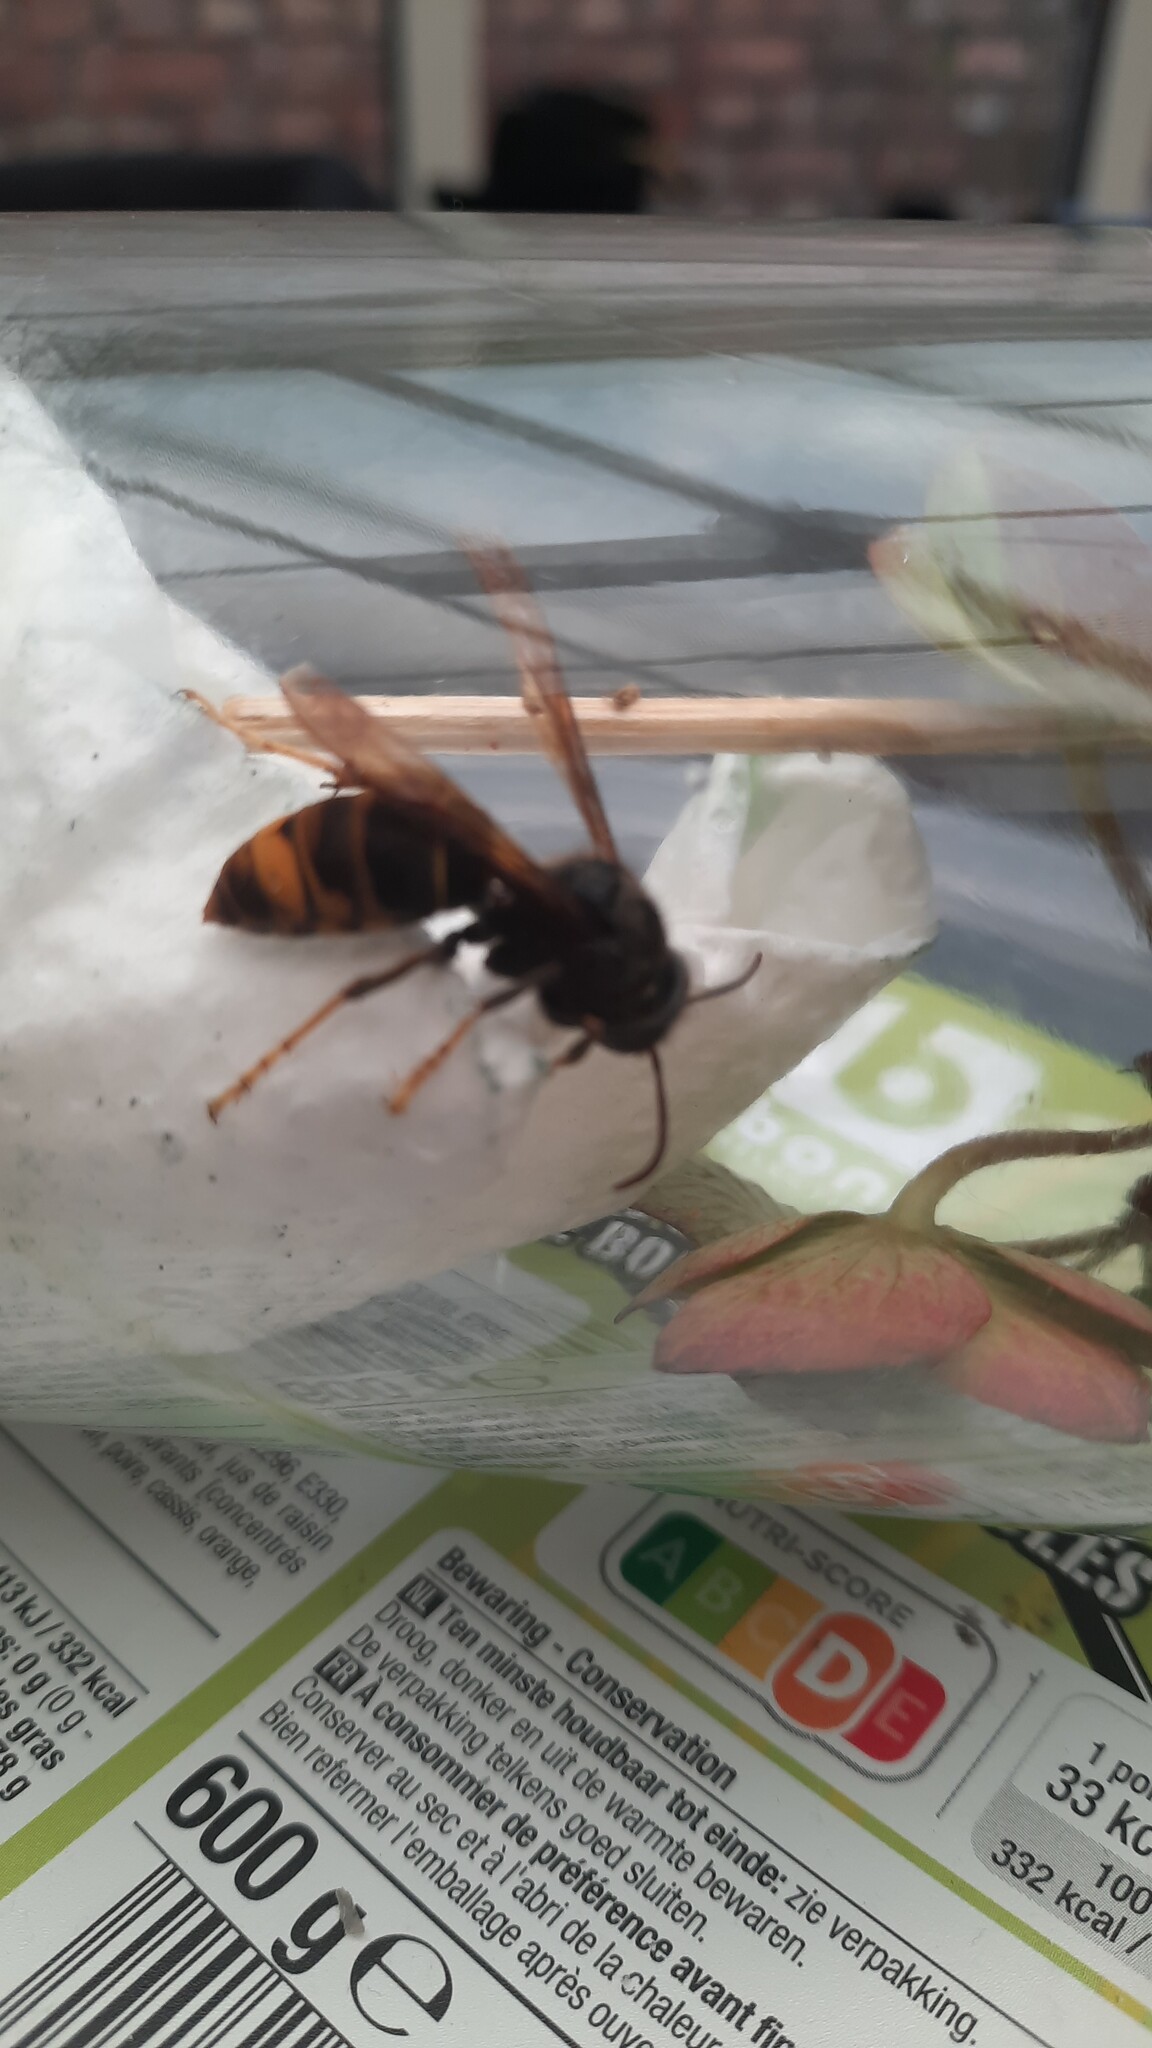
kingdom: Animalia
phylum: Arthropoda
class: Insecta
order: Hymenoptera
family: Vespidae
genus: Vespa
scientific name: Vespa velutina
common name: Asian hornet
